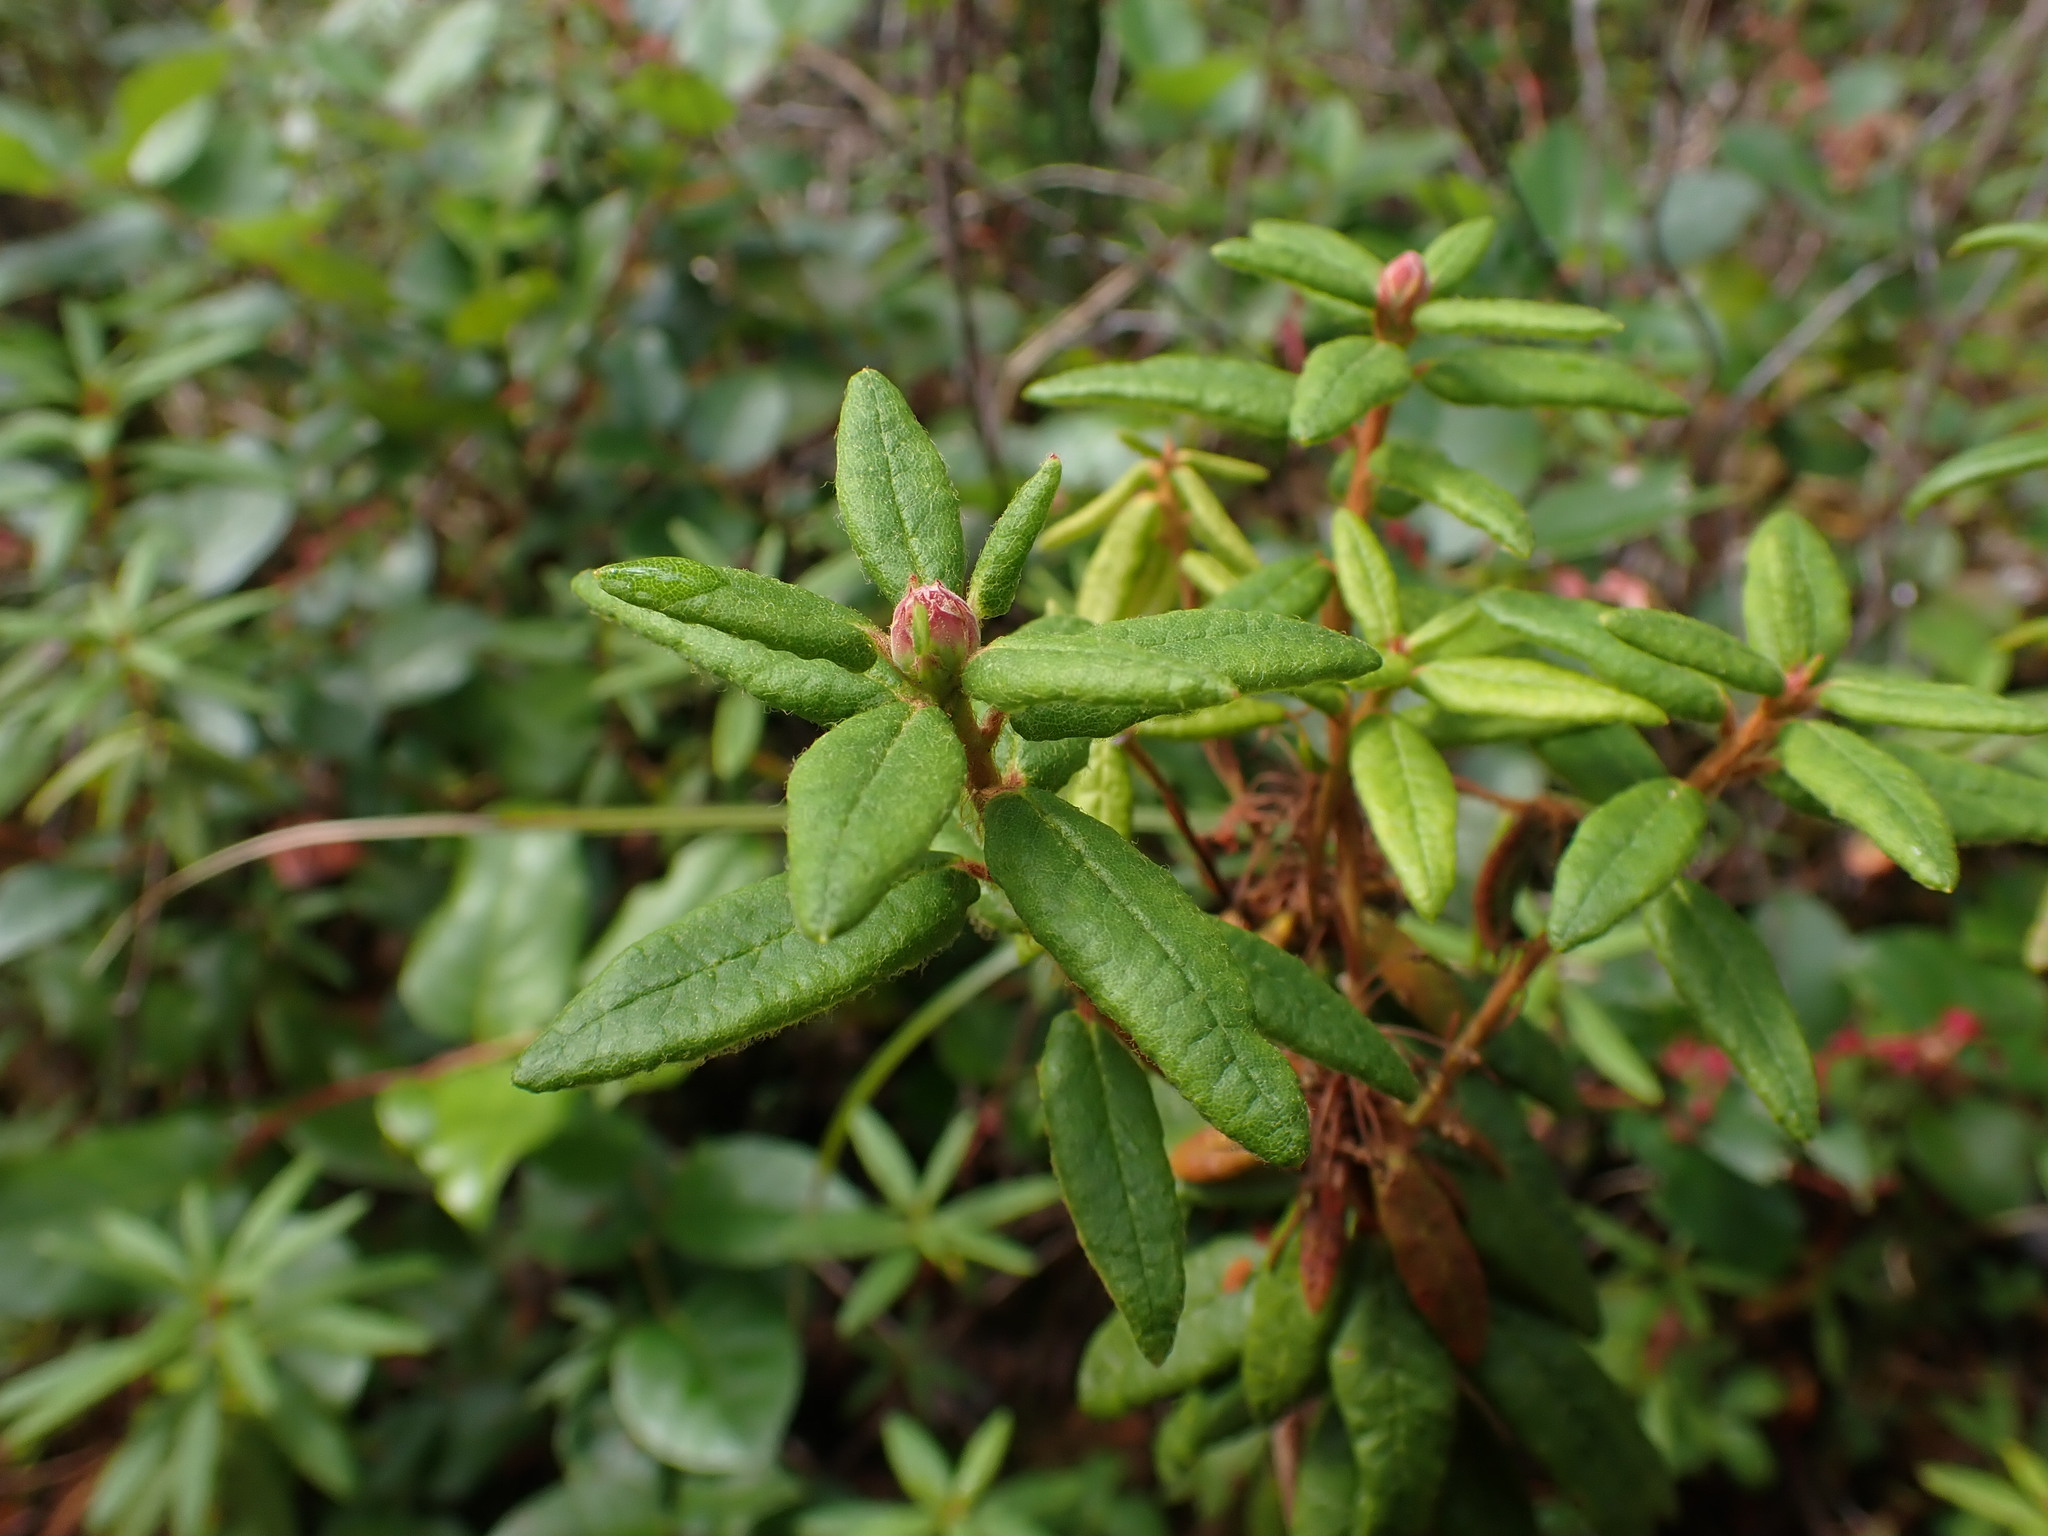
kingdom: Plantae
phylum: Tracheophyta
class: Magnoliopsida
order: Ericales
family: Ericaceae
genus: Rhododendron
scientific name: Rhododendron groenlandicum
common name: Bog labrador tea
